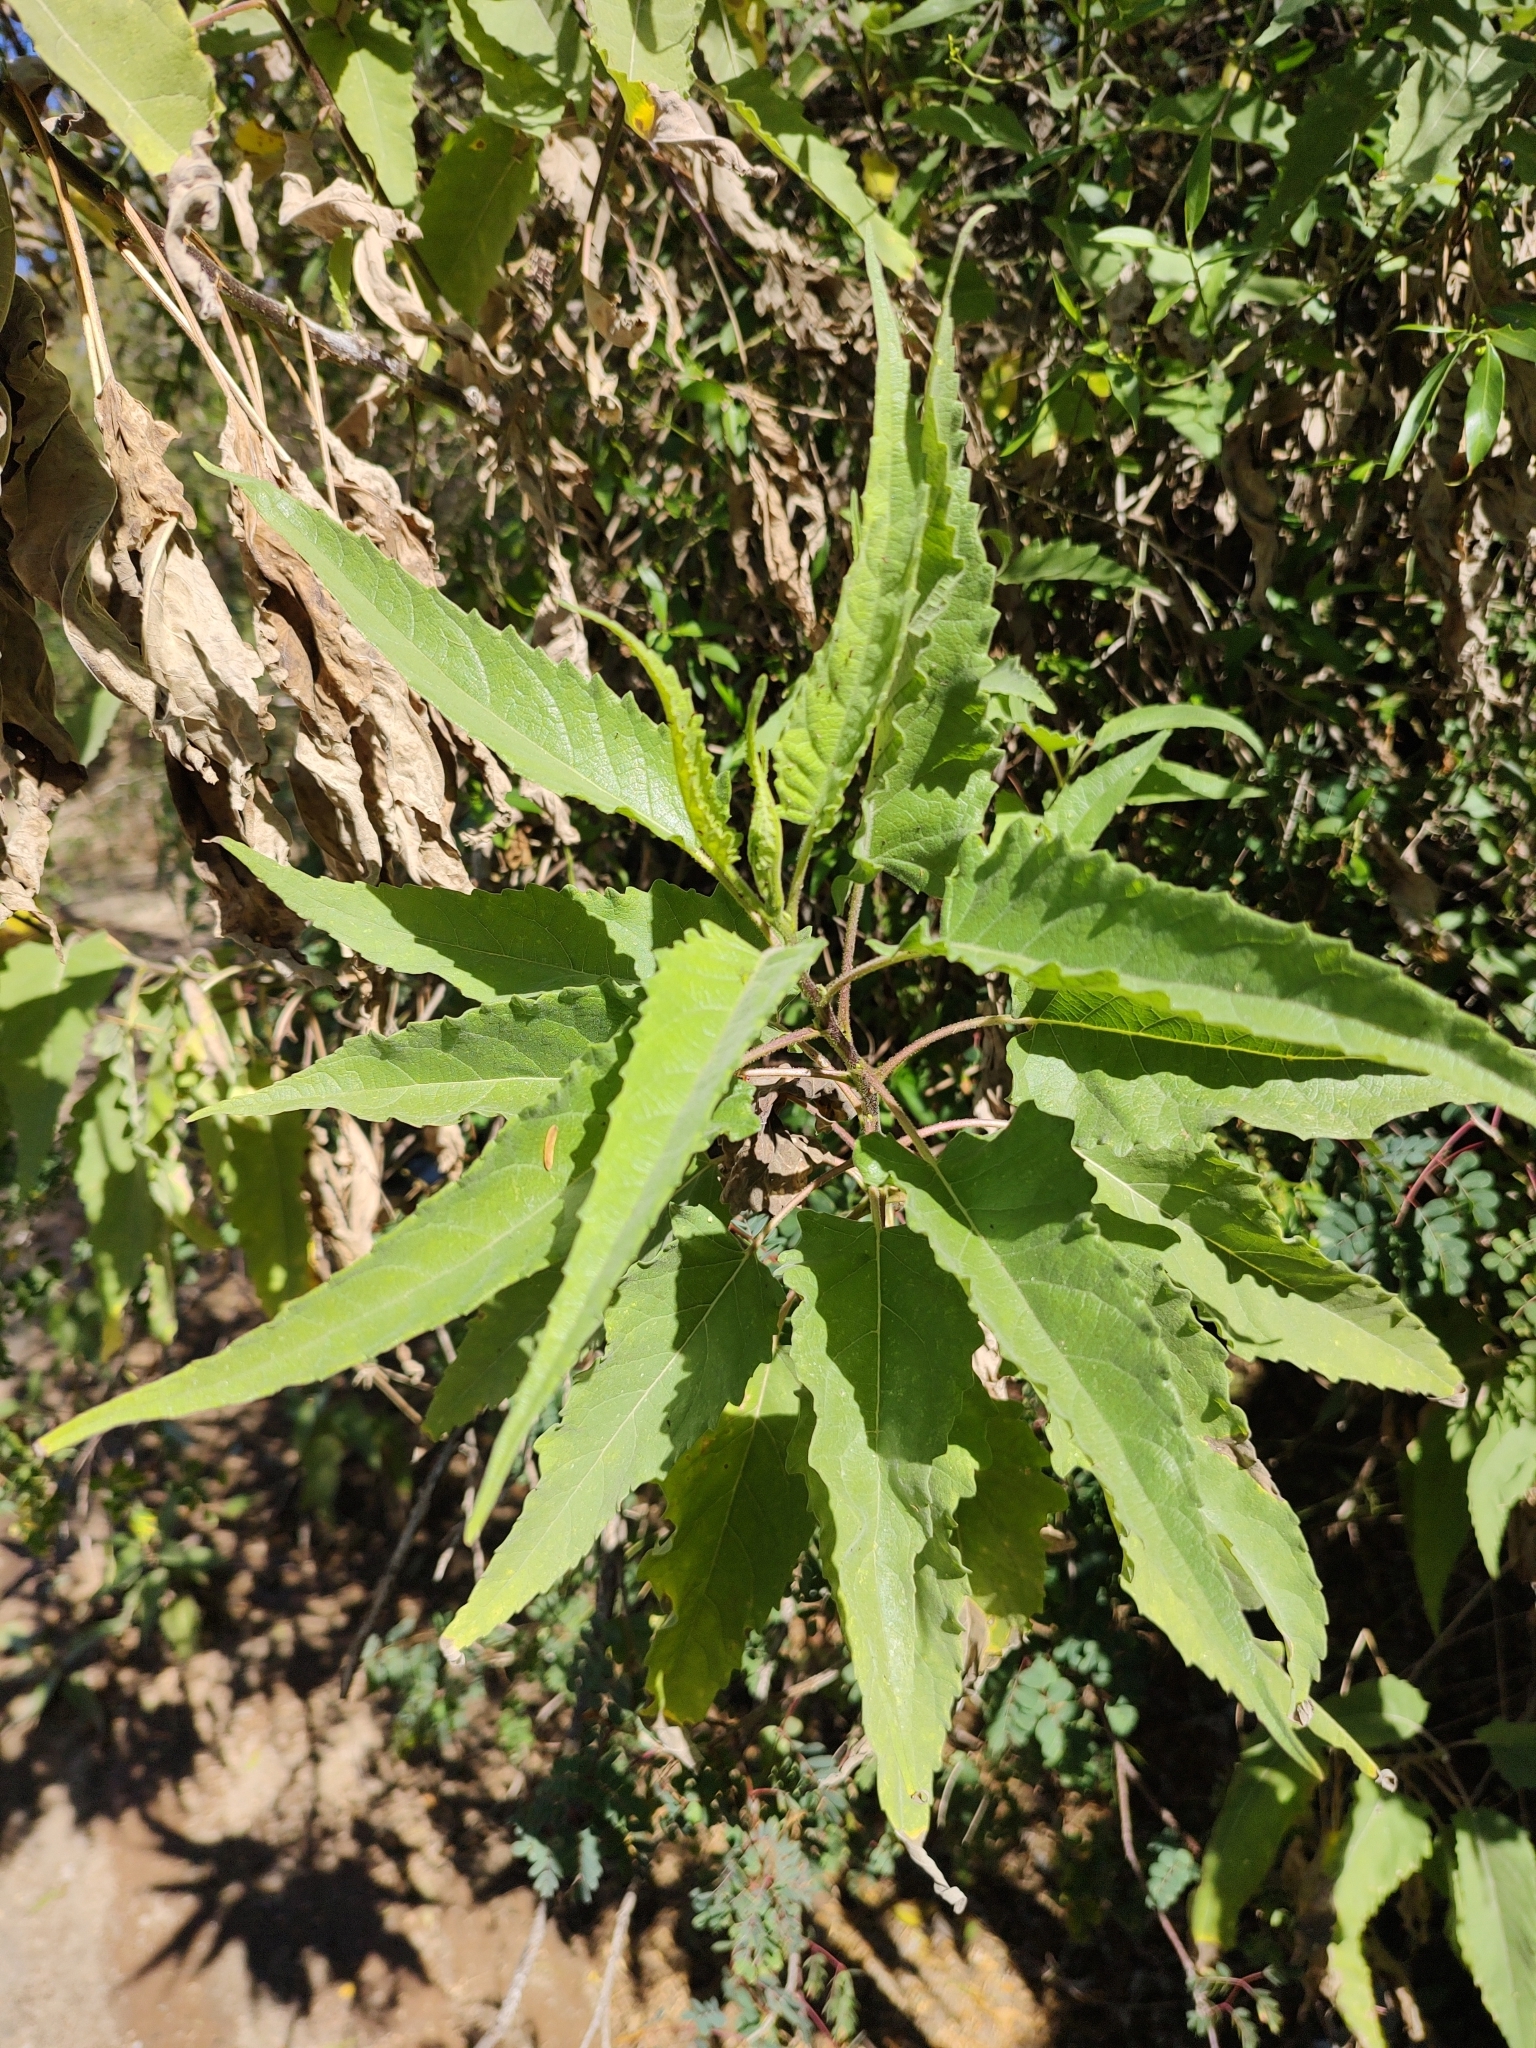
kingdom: Plantae
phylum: Tracheophyta
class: Magnoliopsida
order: Asterales
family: Asteraceae
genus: Ambrosia
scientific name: Ambrosia ambrosioides
